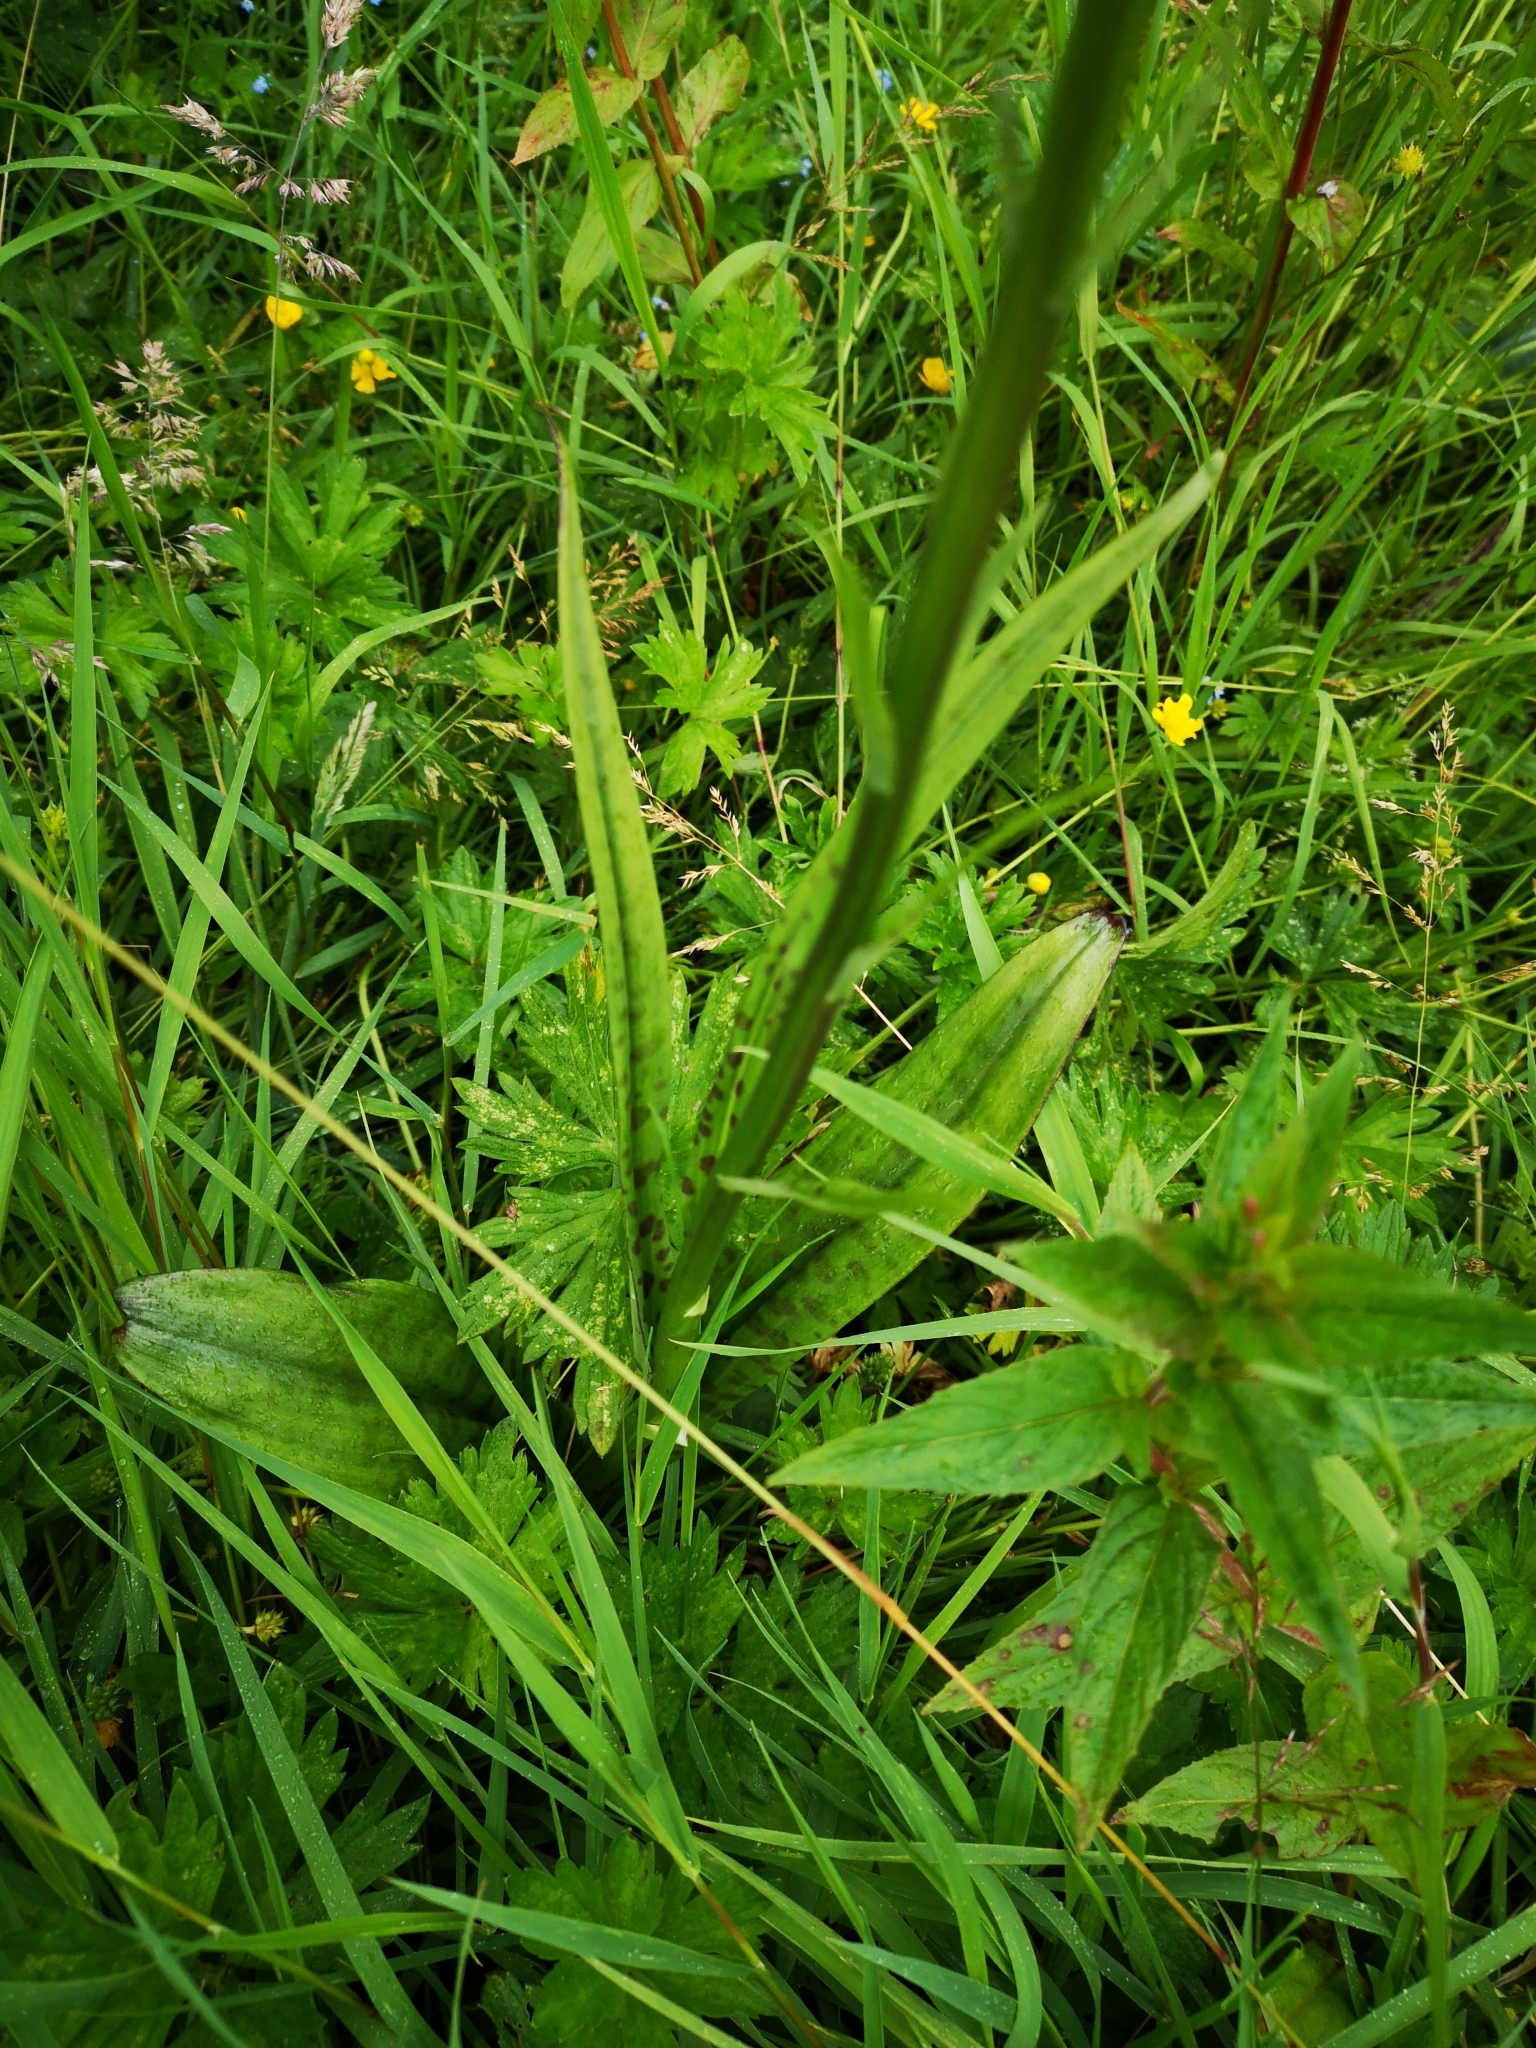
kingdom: Plantae
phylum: Tracheophyta
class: Liliopsida
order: Asparagales
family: Orchidaceae
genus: Dactylorhiza
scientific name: Dactylorhiza maculata
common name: Heath spotted-orchid
